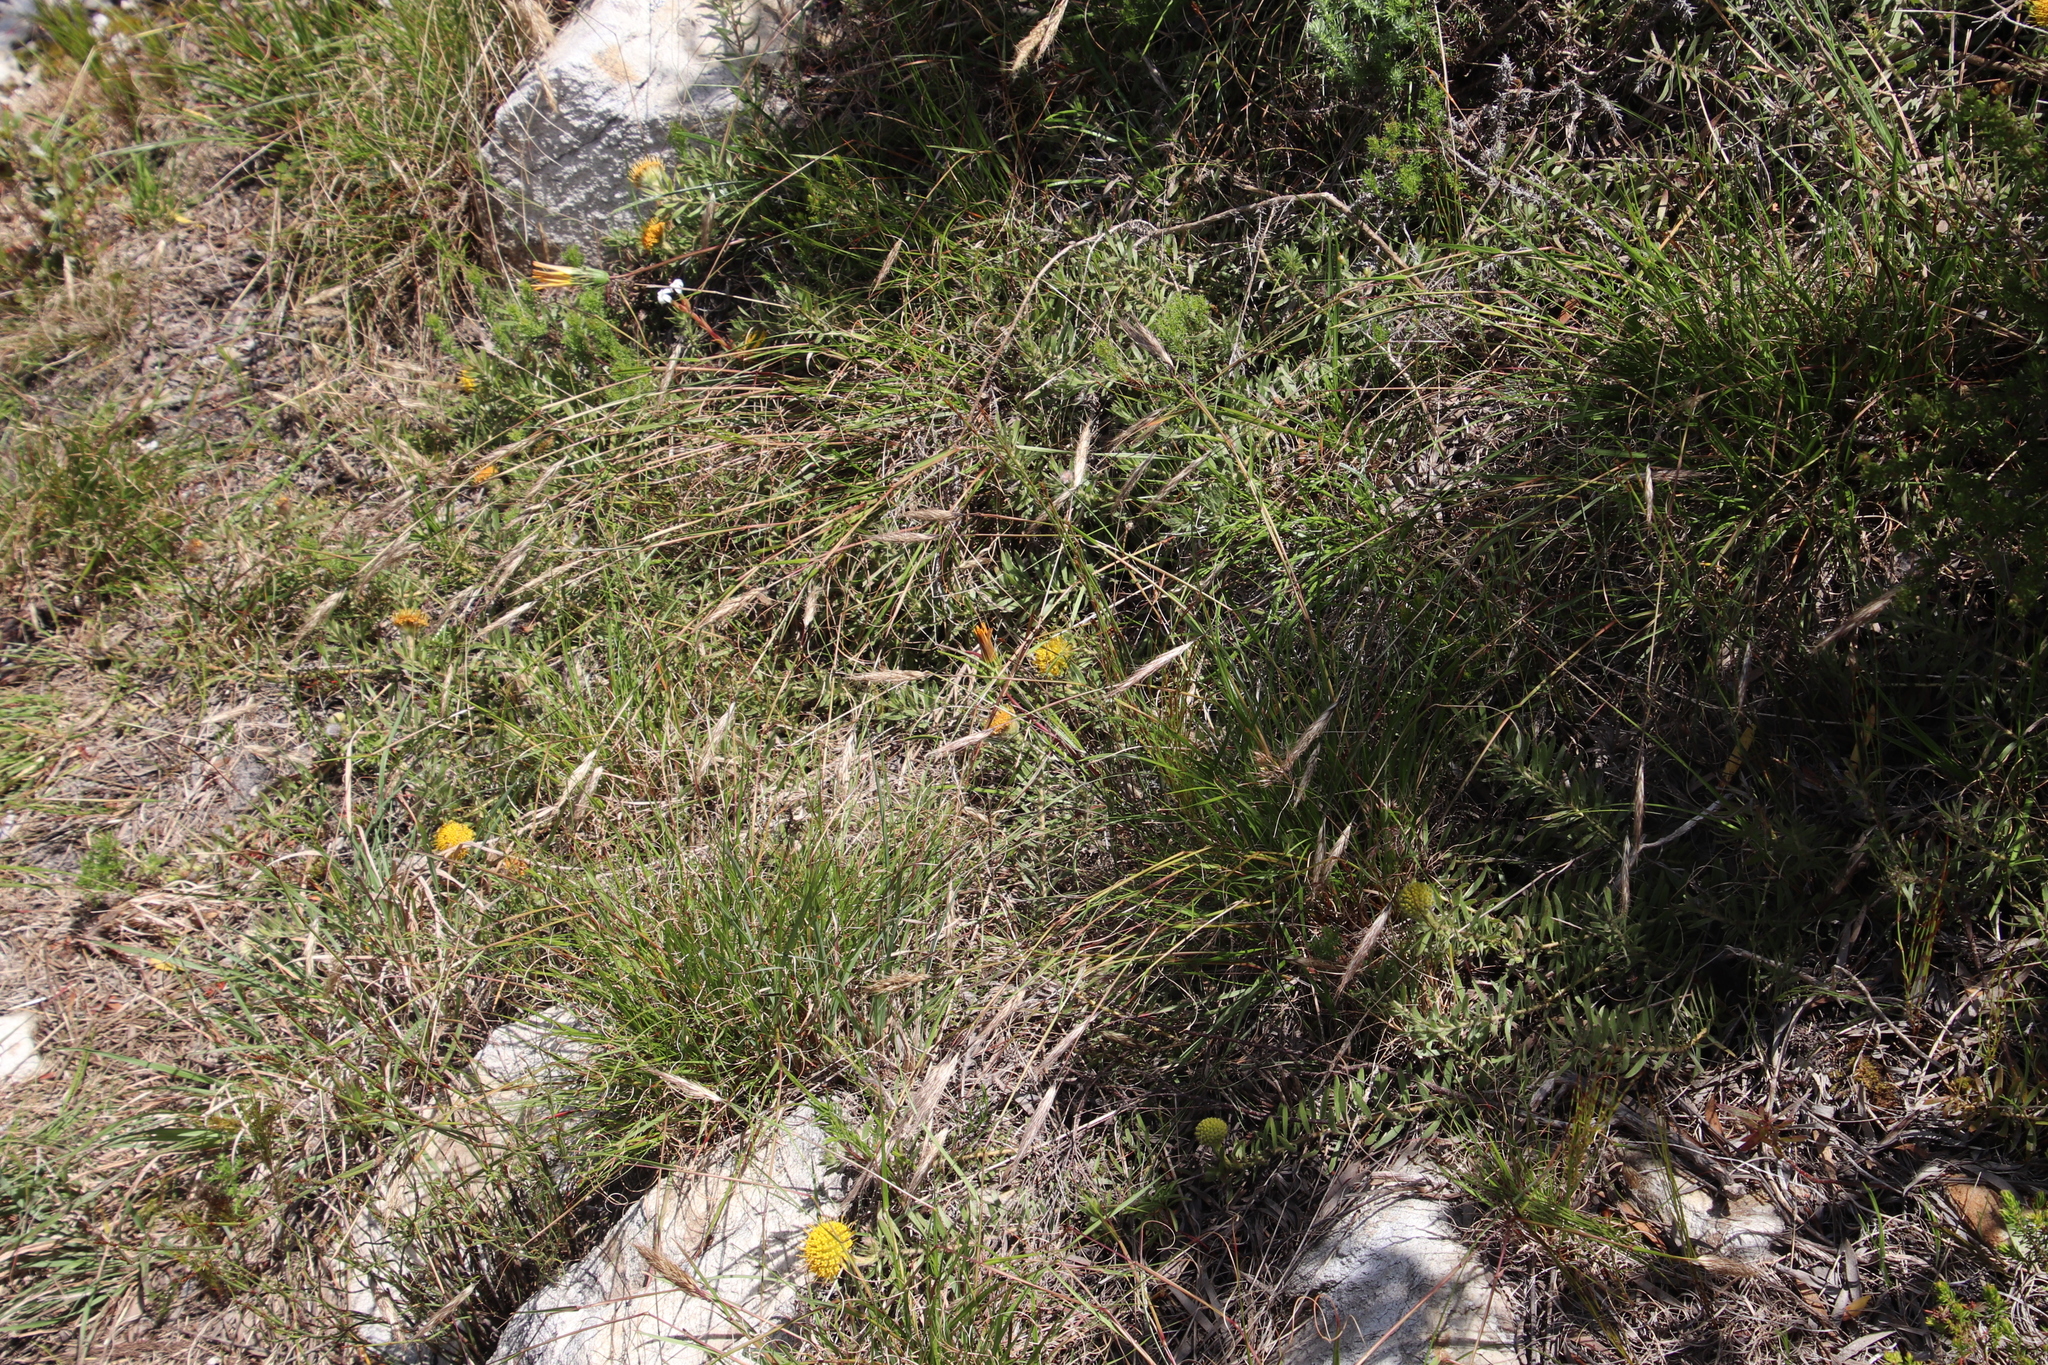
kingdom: Plantae
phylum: Tracheophyta
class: Magnoliopsida
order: Proteales
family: Proteaceae
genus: Leucospermum
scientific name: Leucospermum prostratum
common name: Yellow-trailing pincushion
